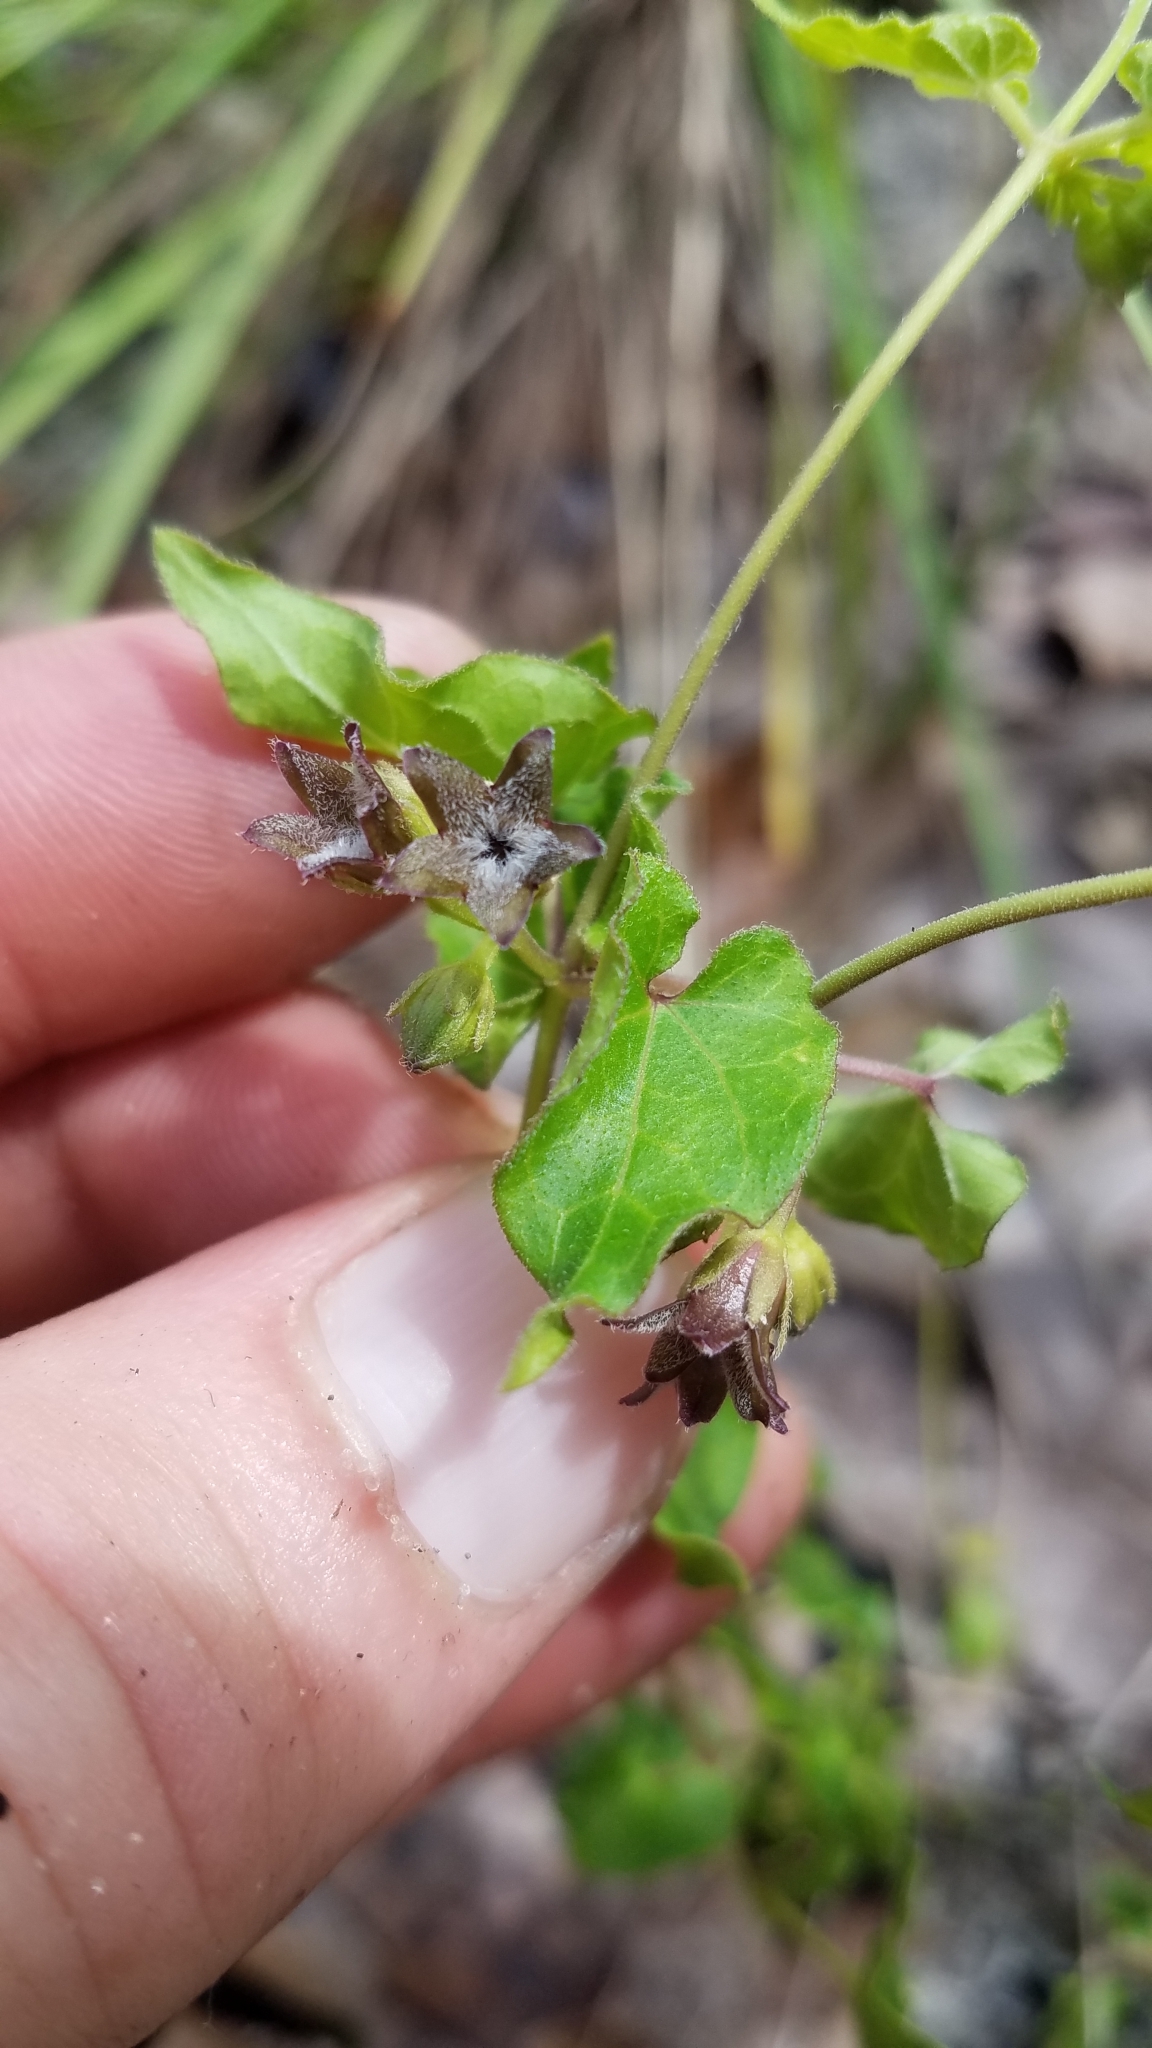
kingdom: Plantae
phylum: Tracheophyta
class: Magnoliopsida
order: Gentianales
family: Apocynaceae
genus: Chthamalia
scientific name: Chthamalia pubiflora
